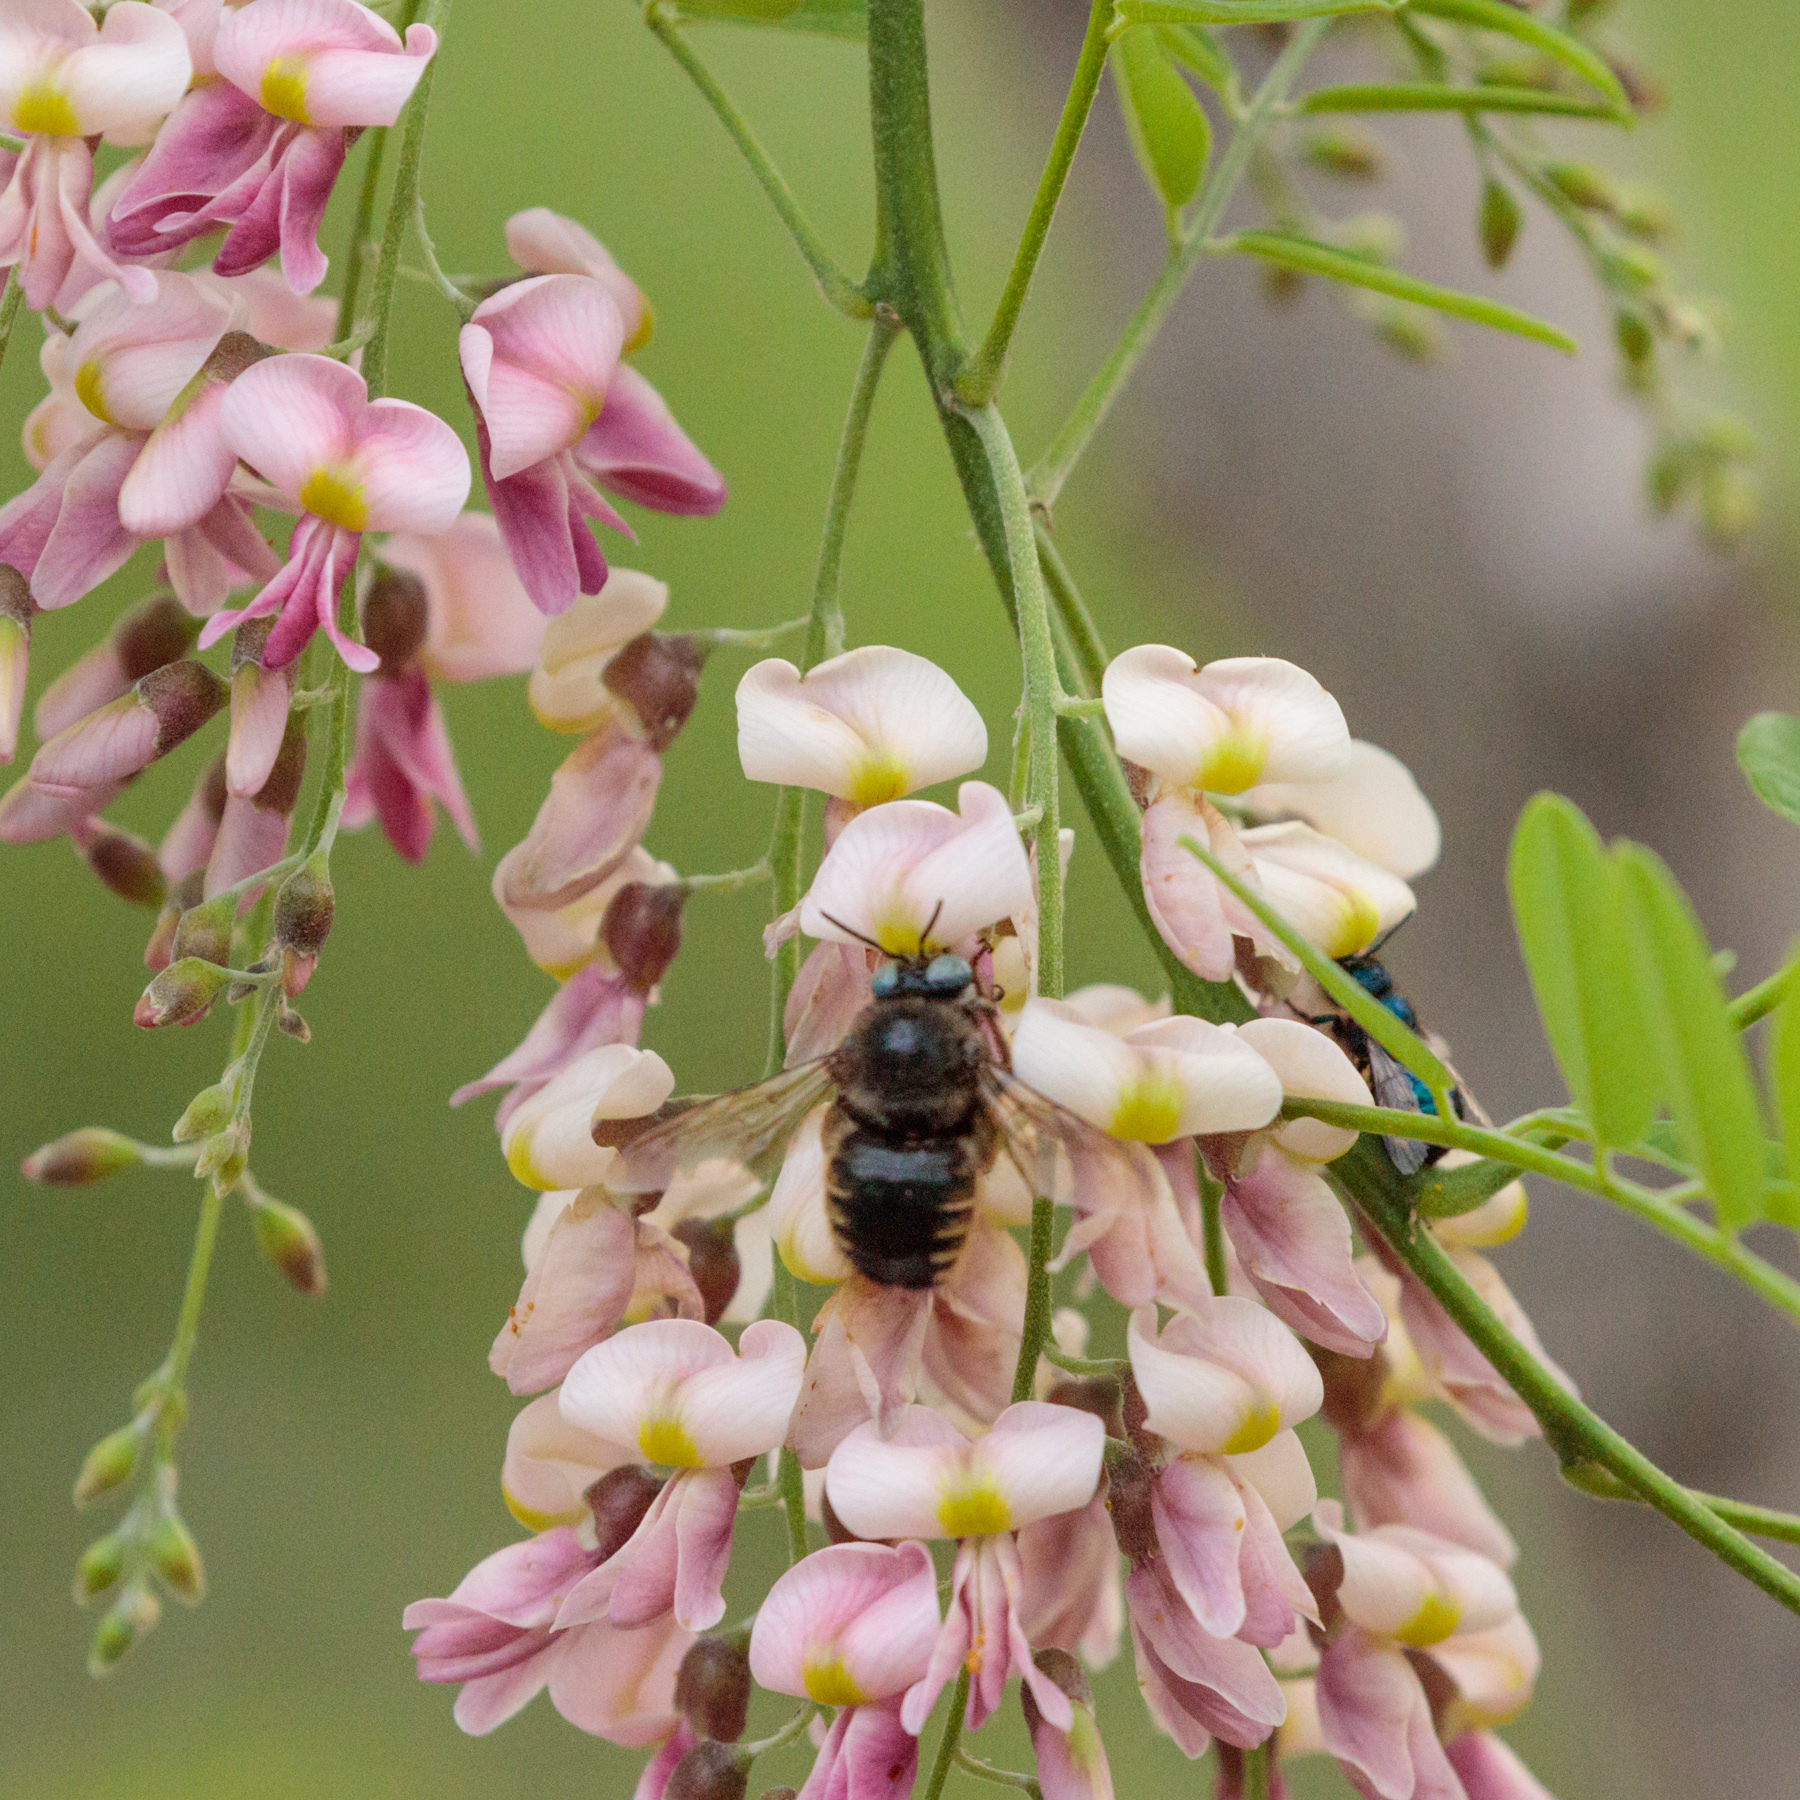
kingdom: Animalia
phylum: Arthropoda
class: Insecta
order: Hymenoptera
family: Apidae
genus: Xylocopa
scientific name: Xylocopa tabaniformis
